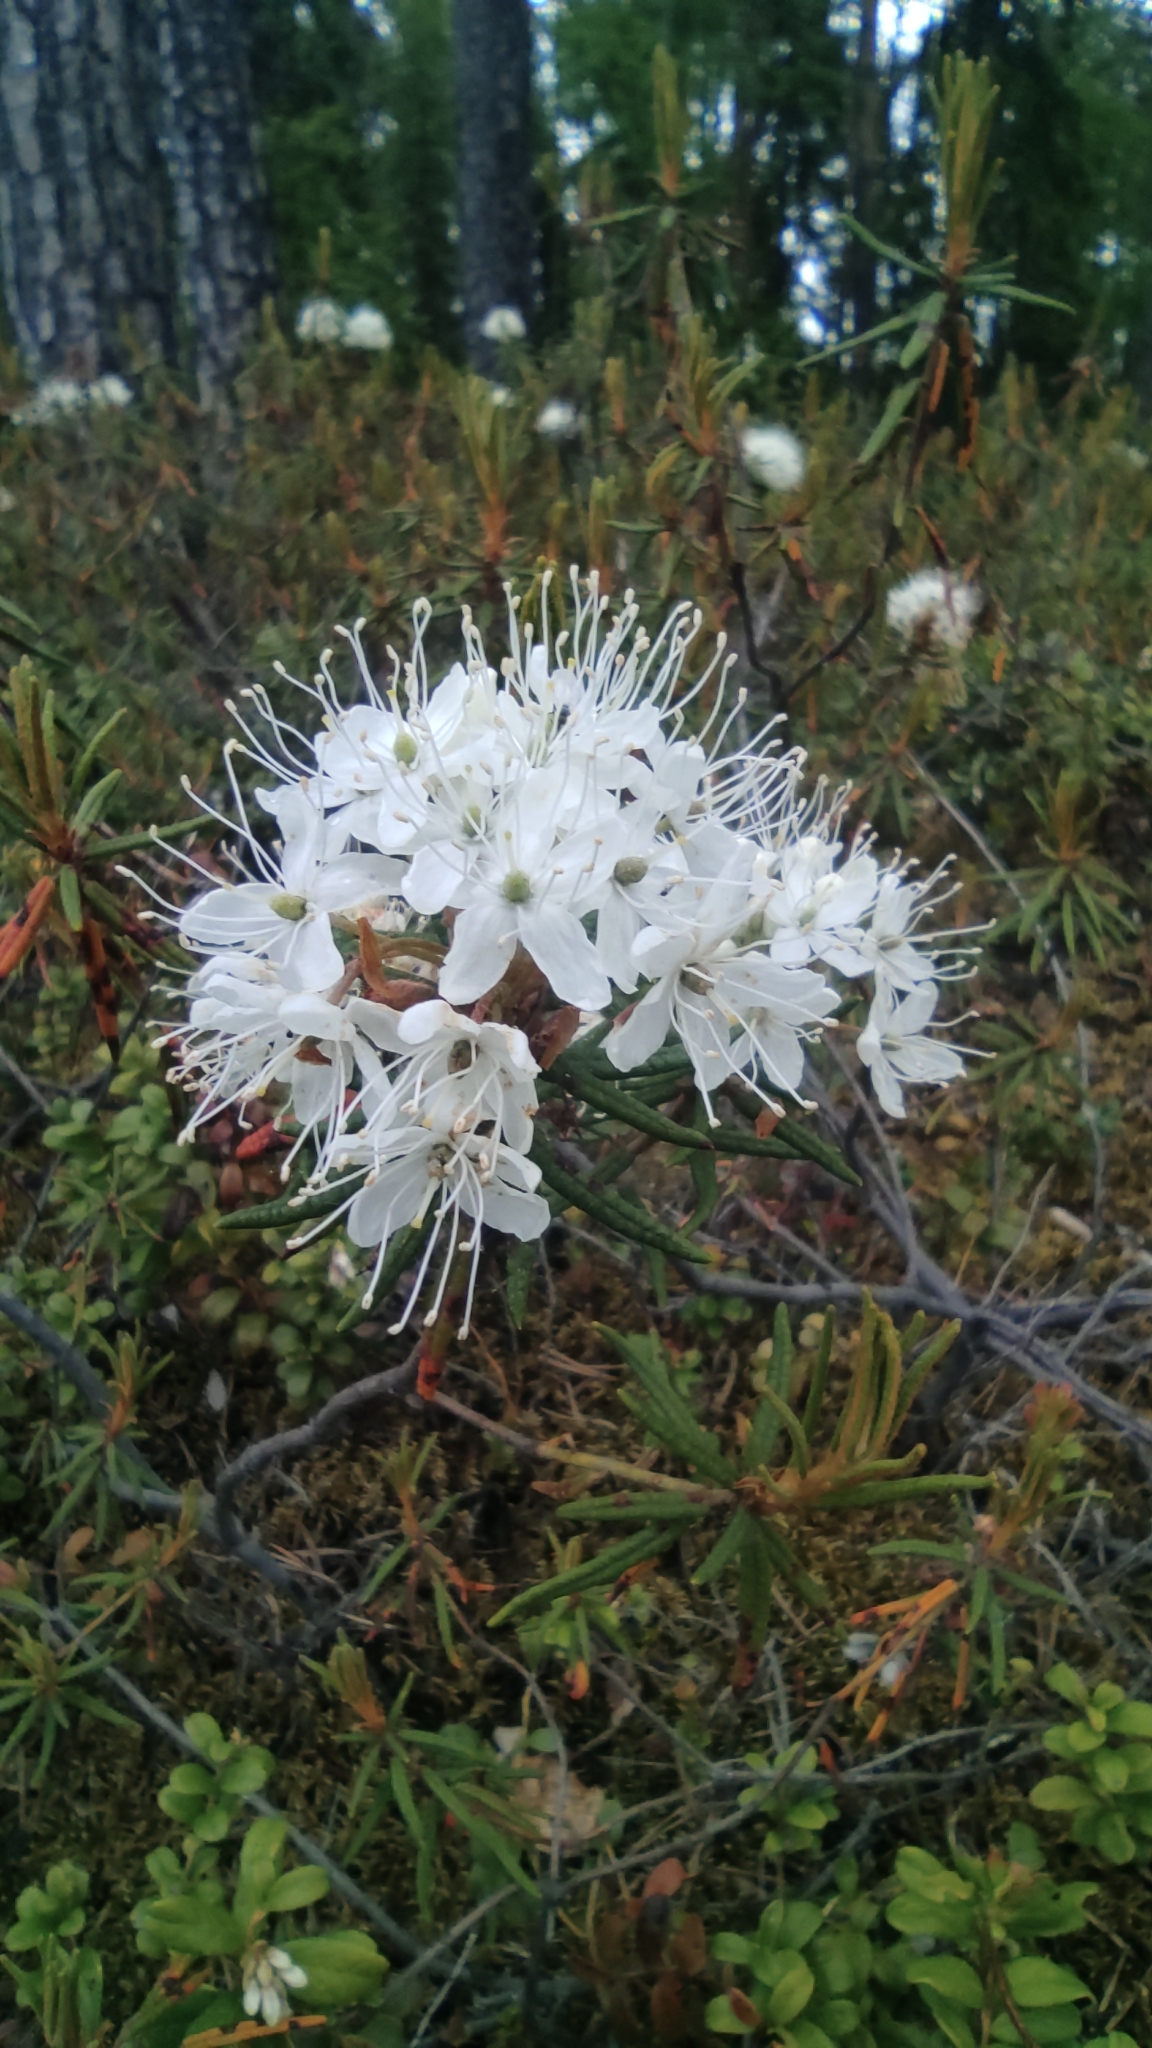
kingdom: Plantae
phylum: Tracheophyta
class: Magnoliopsida
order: Ericales
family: Ericaceae
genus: Rhododendron
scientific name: Rhododendron tomentosum
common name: Marsh labrador tea
